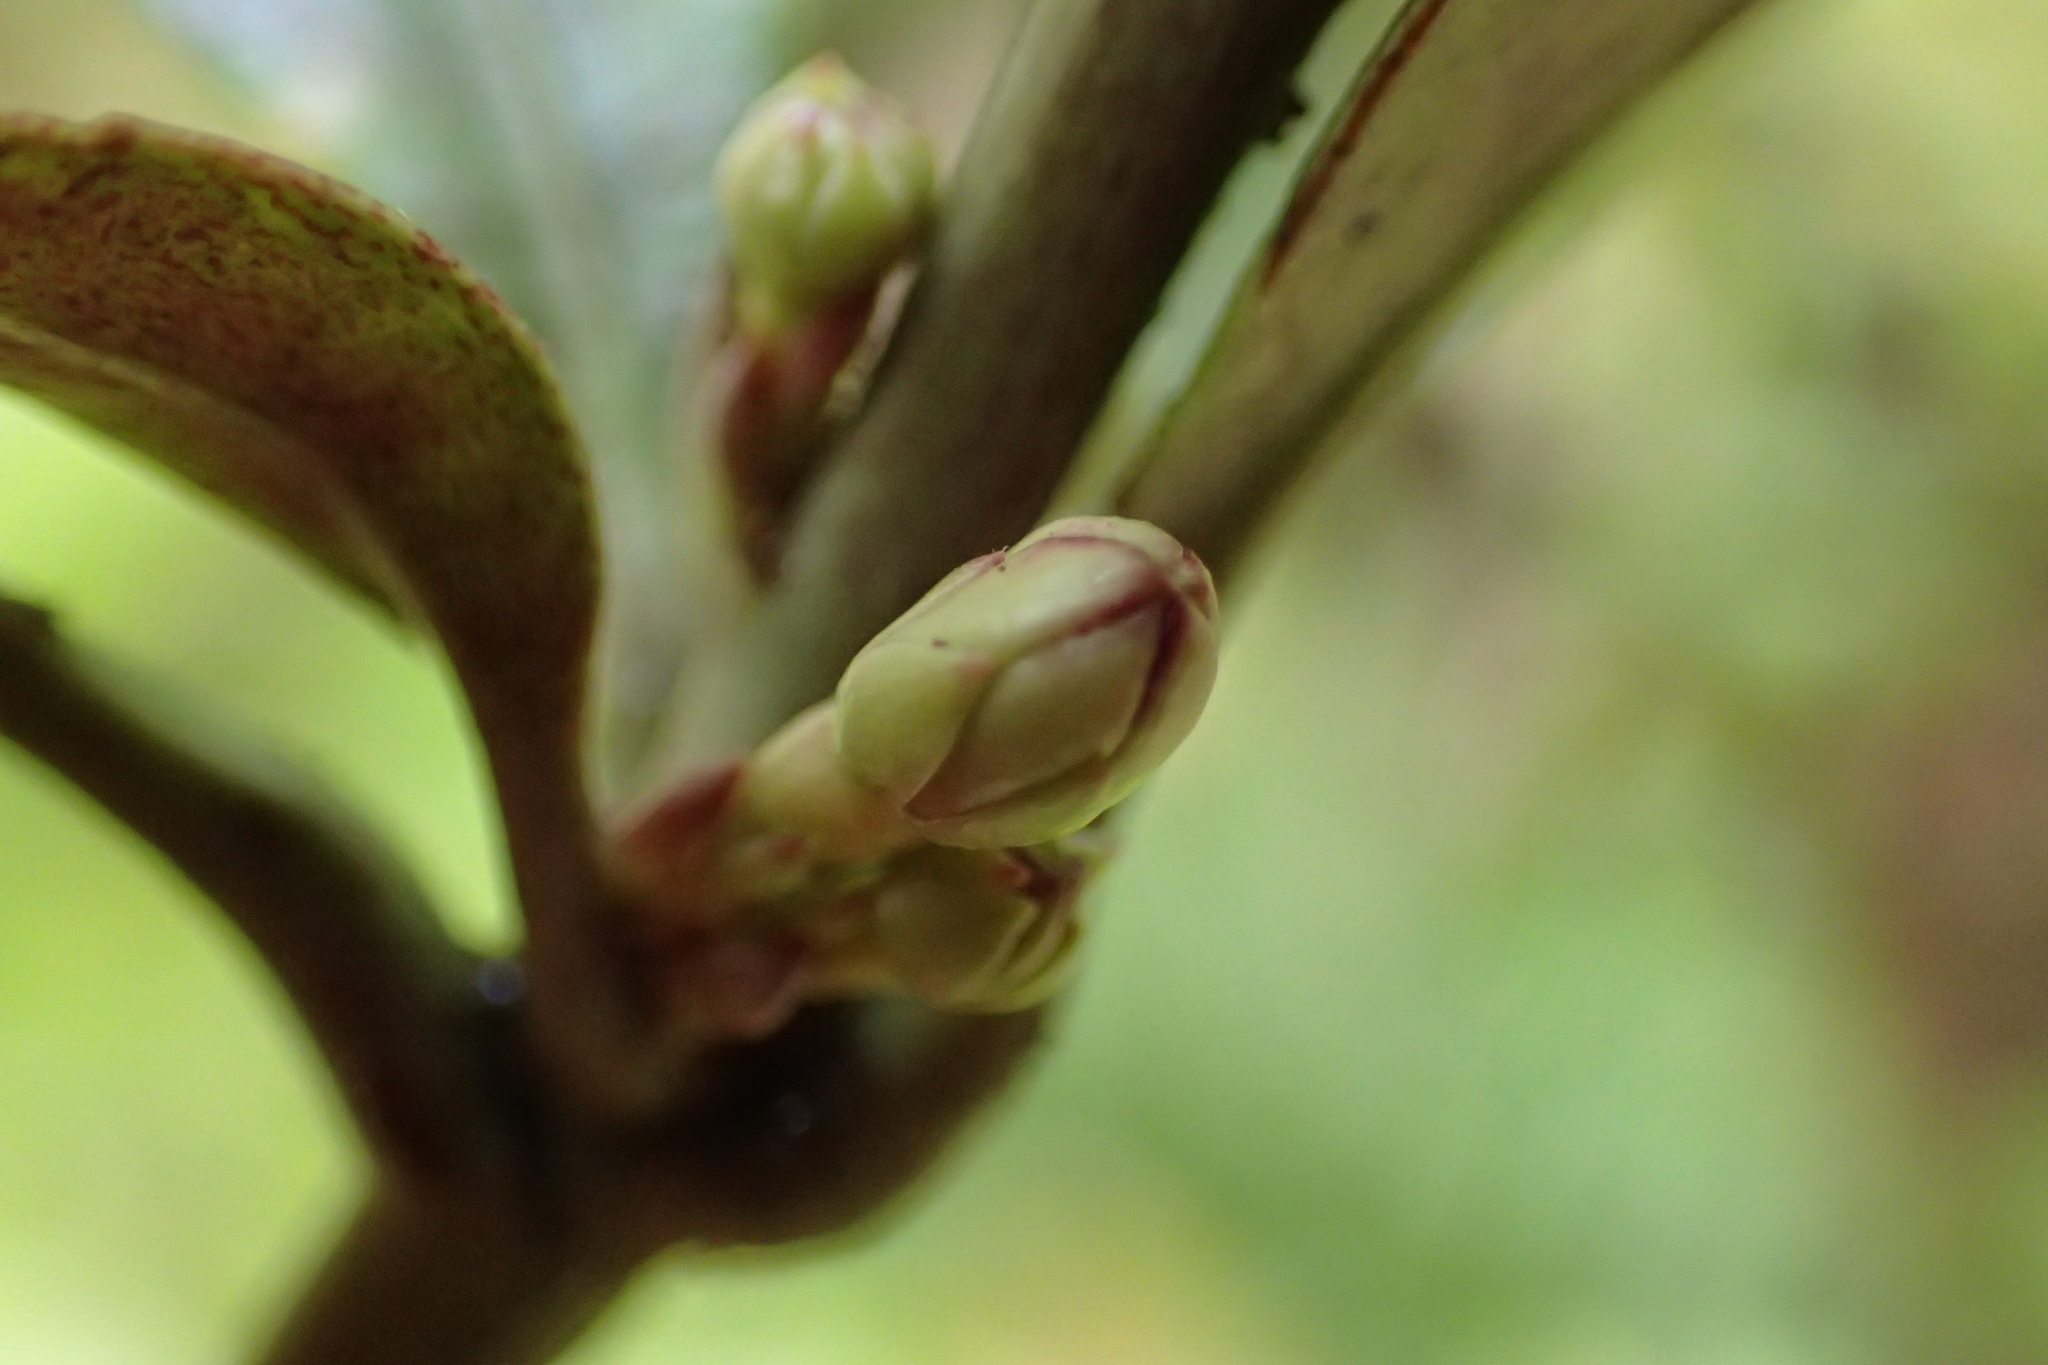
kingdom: Plantae
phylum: Tracheophyta
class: Magnoliopsida
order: Asterales
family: Alseuosmiaceae
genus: Alseuosmia
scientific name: Alseuosmia macrophylla
